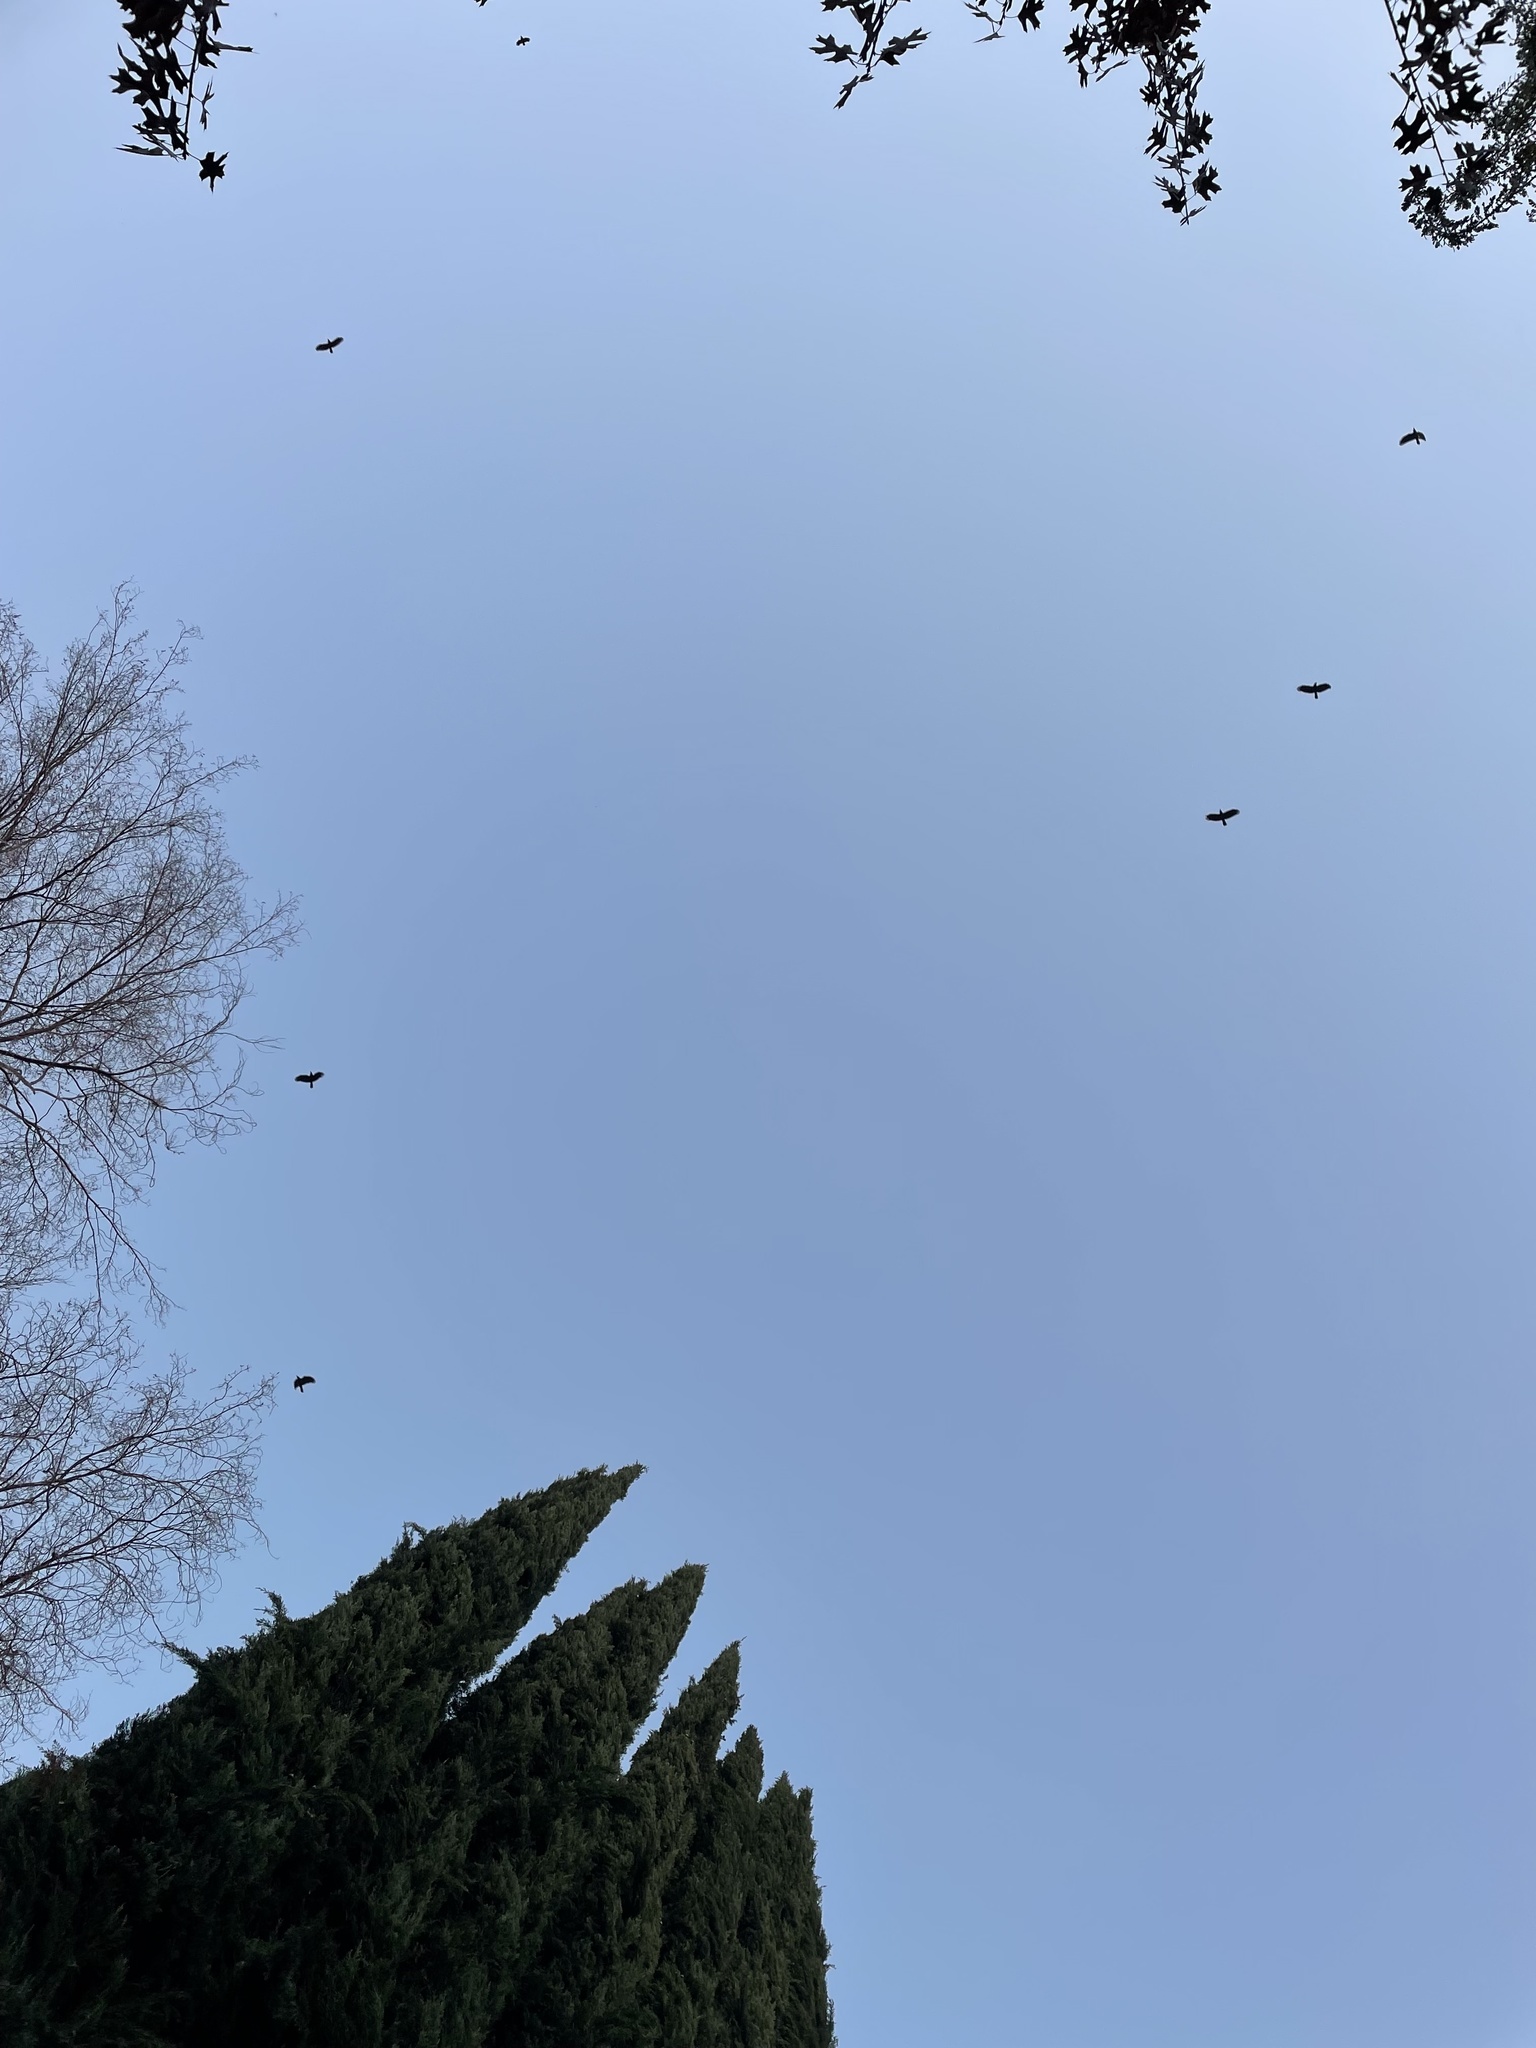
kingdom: Animalia
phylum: Chordata
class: Aves
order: Passeriformes
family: Corvidae
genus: Corvus
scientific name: Corvus brachyrhynchos
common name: American crow
